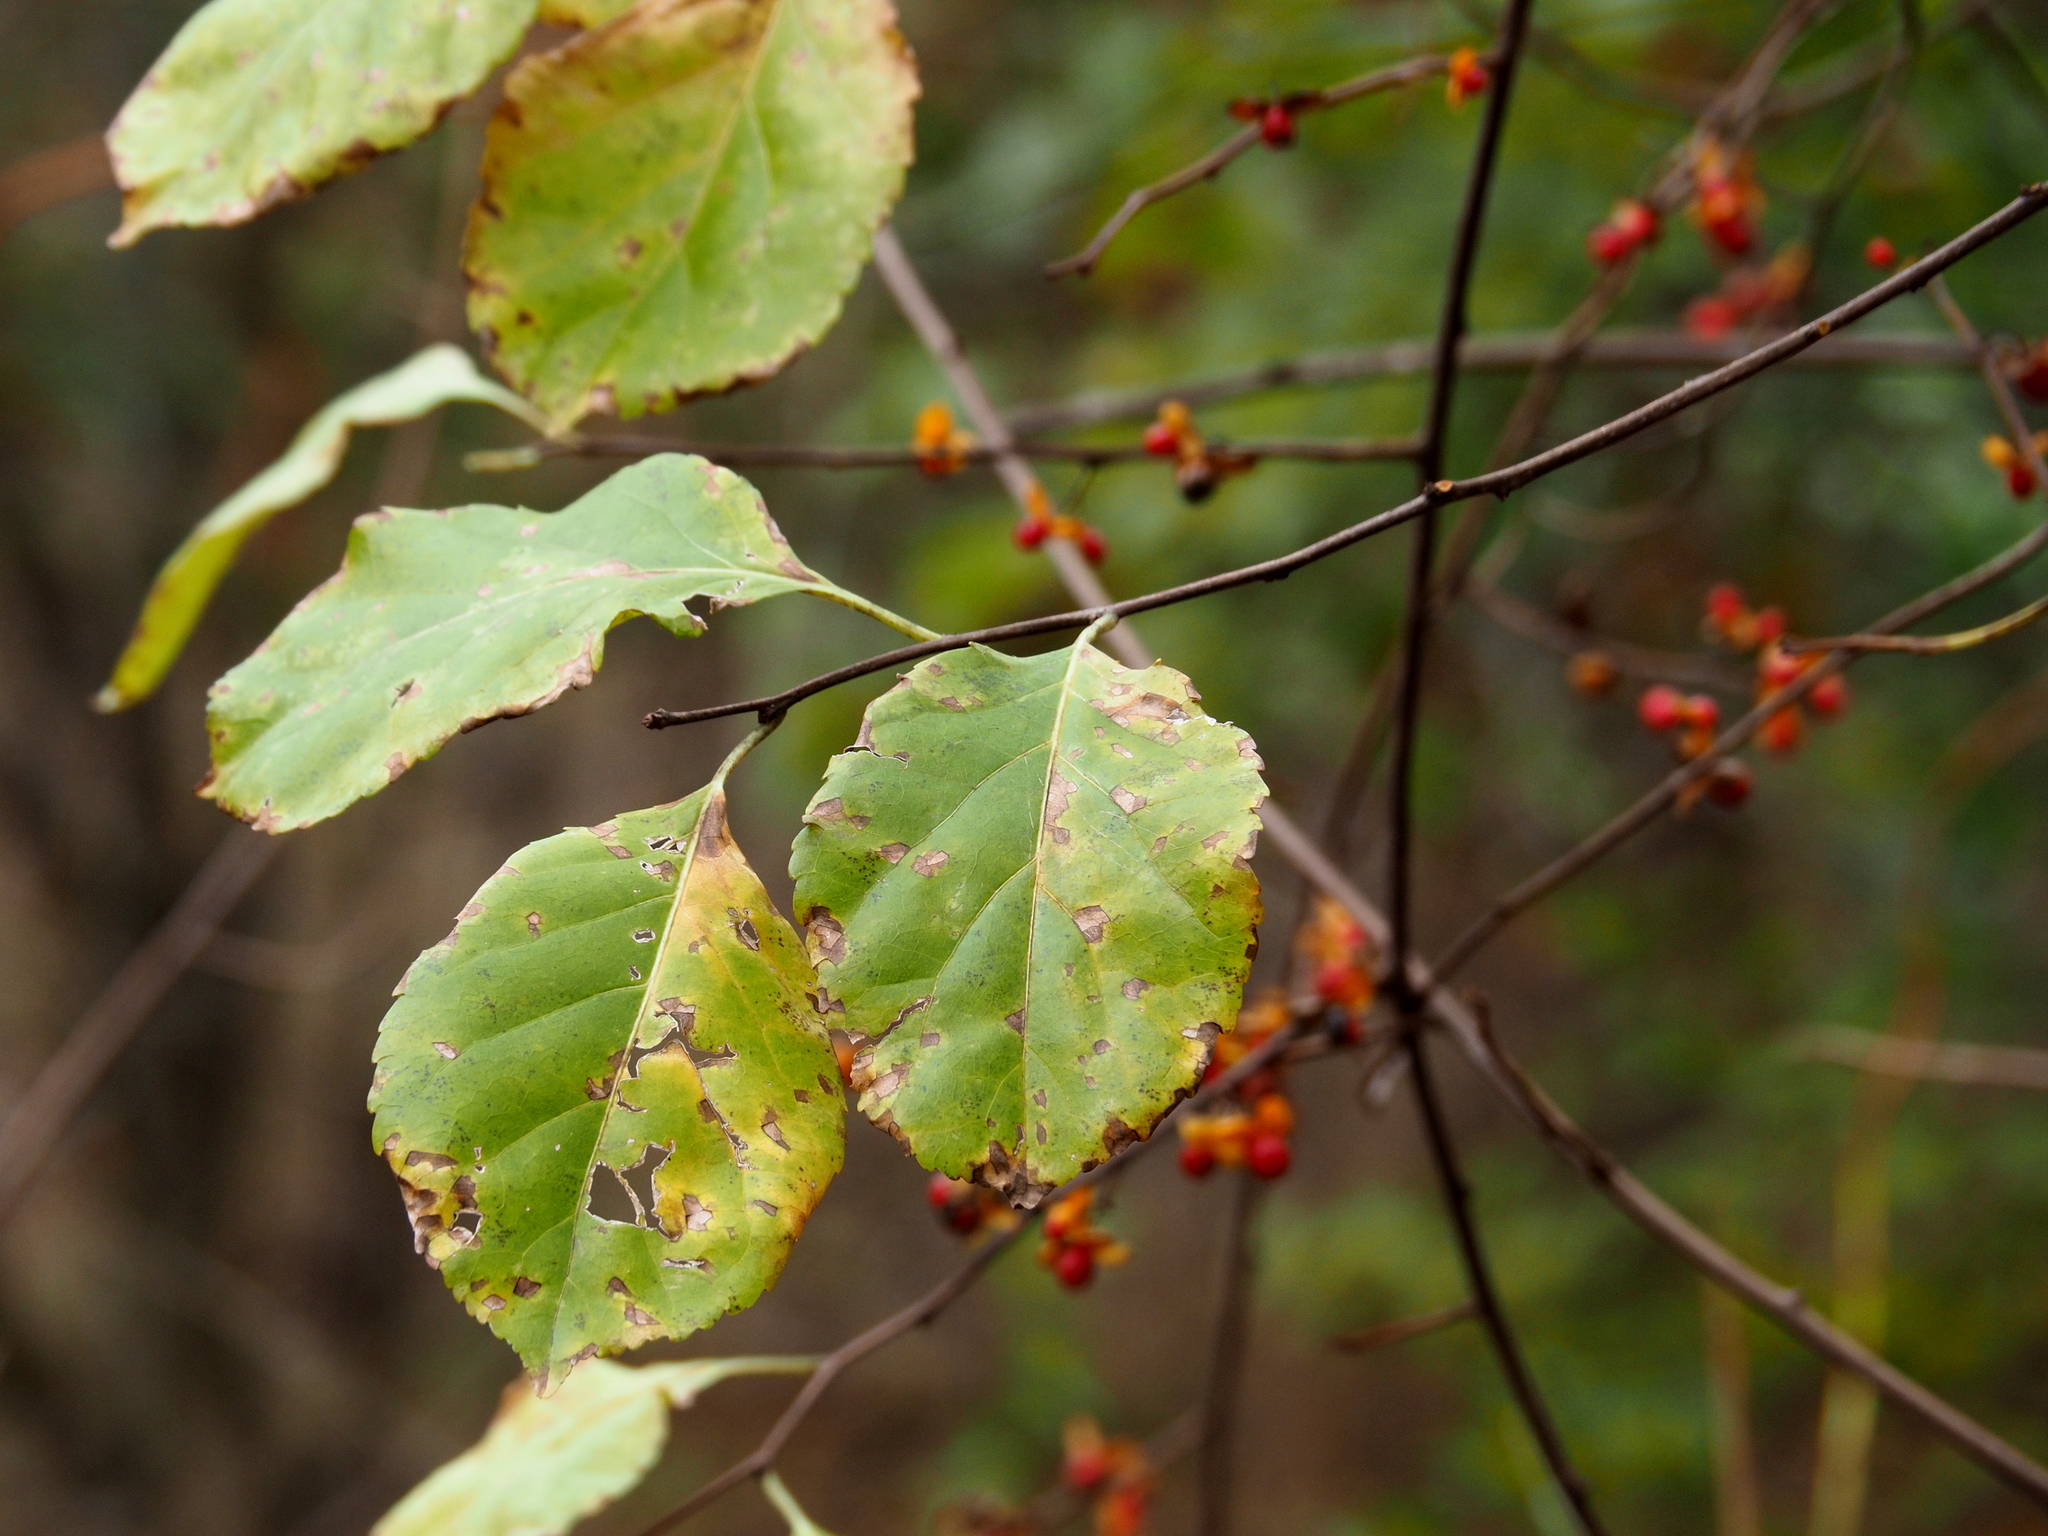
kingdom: Plantae
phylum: Tracheophyta
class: Magnoliopsida
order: Celastrales
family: Celastraceae
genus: Celastrus
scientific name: Celastrus orbiculatus
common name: Oriental bittersweet
